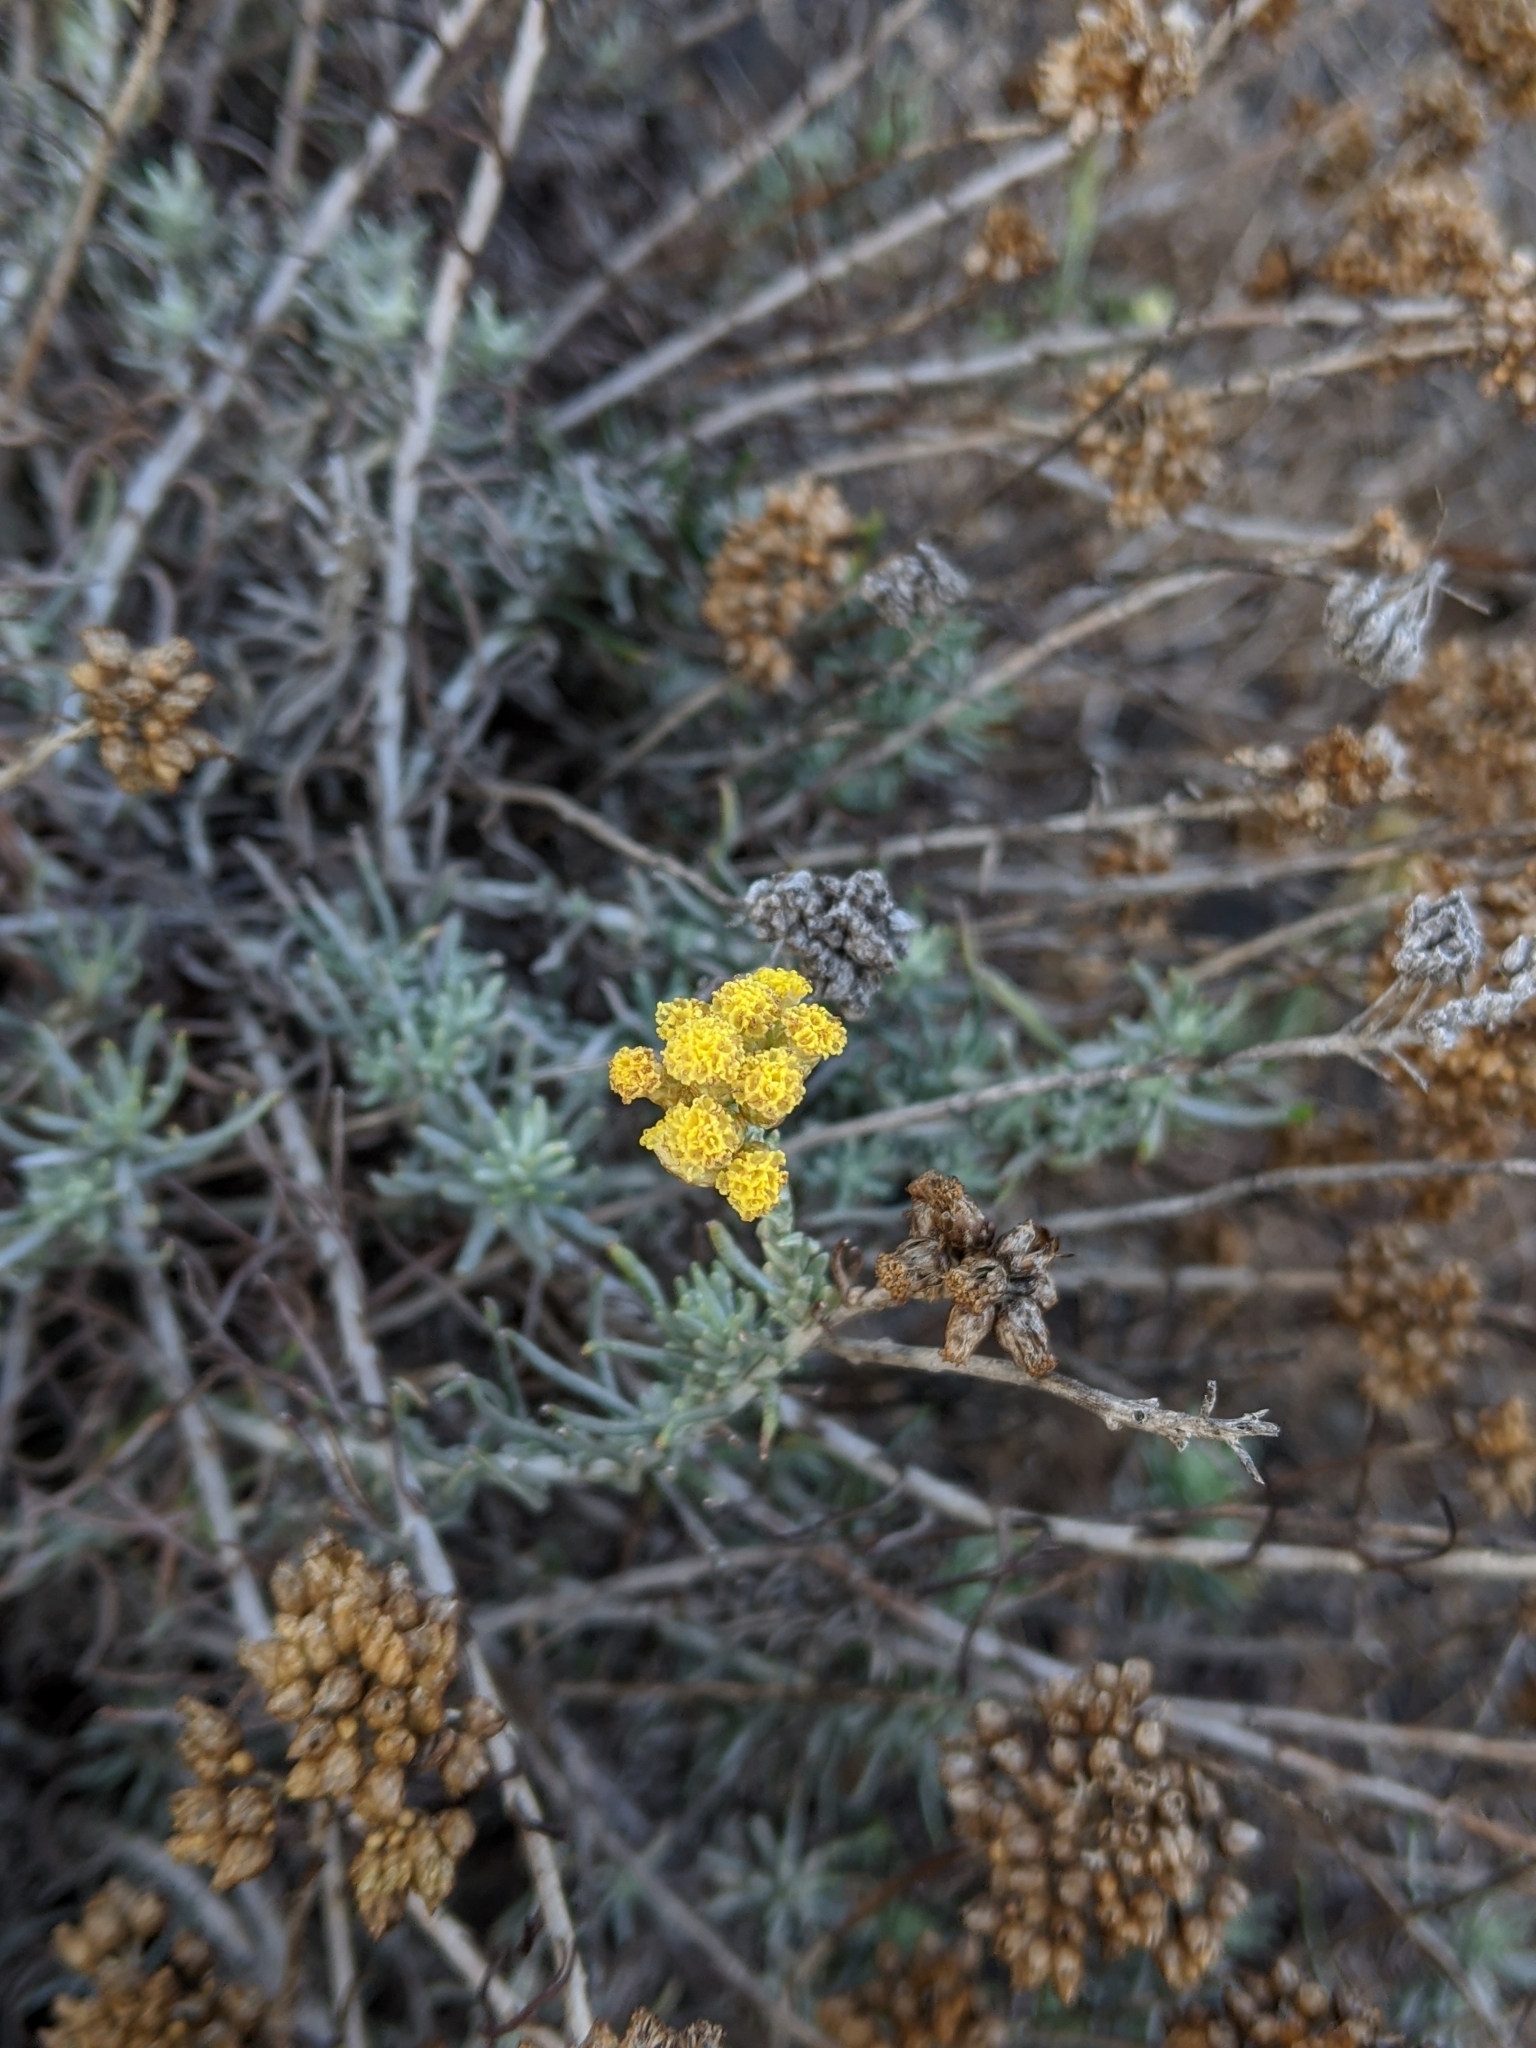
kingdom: Plantae
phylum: Tracheophyta
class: Magnoliopsida
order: Asterales
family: Asteraceae
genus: Helichrysum
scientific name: Helichrysum italicum
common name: Curryplant
